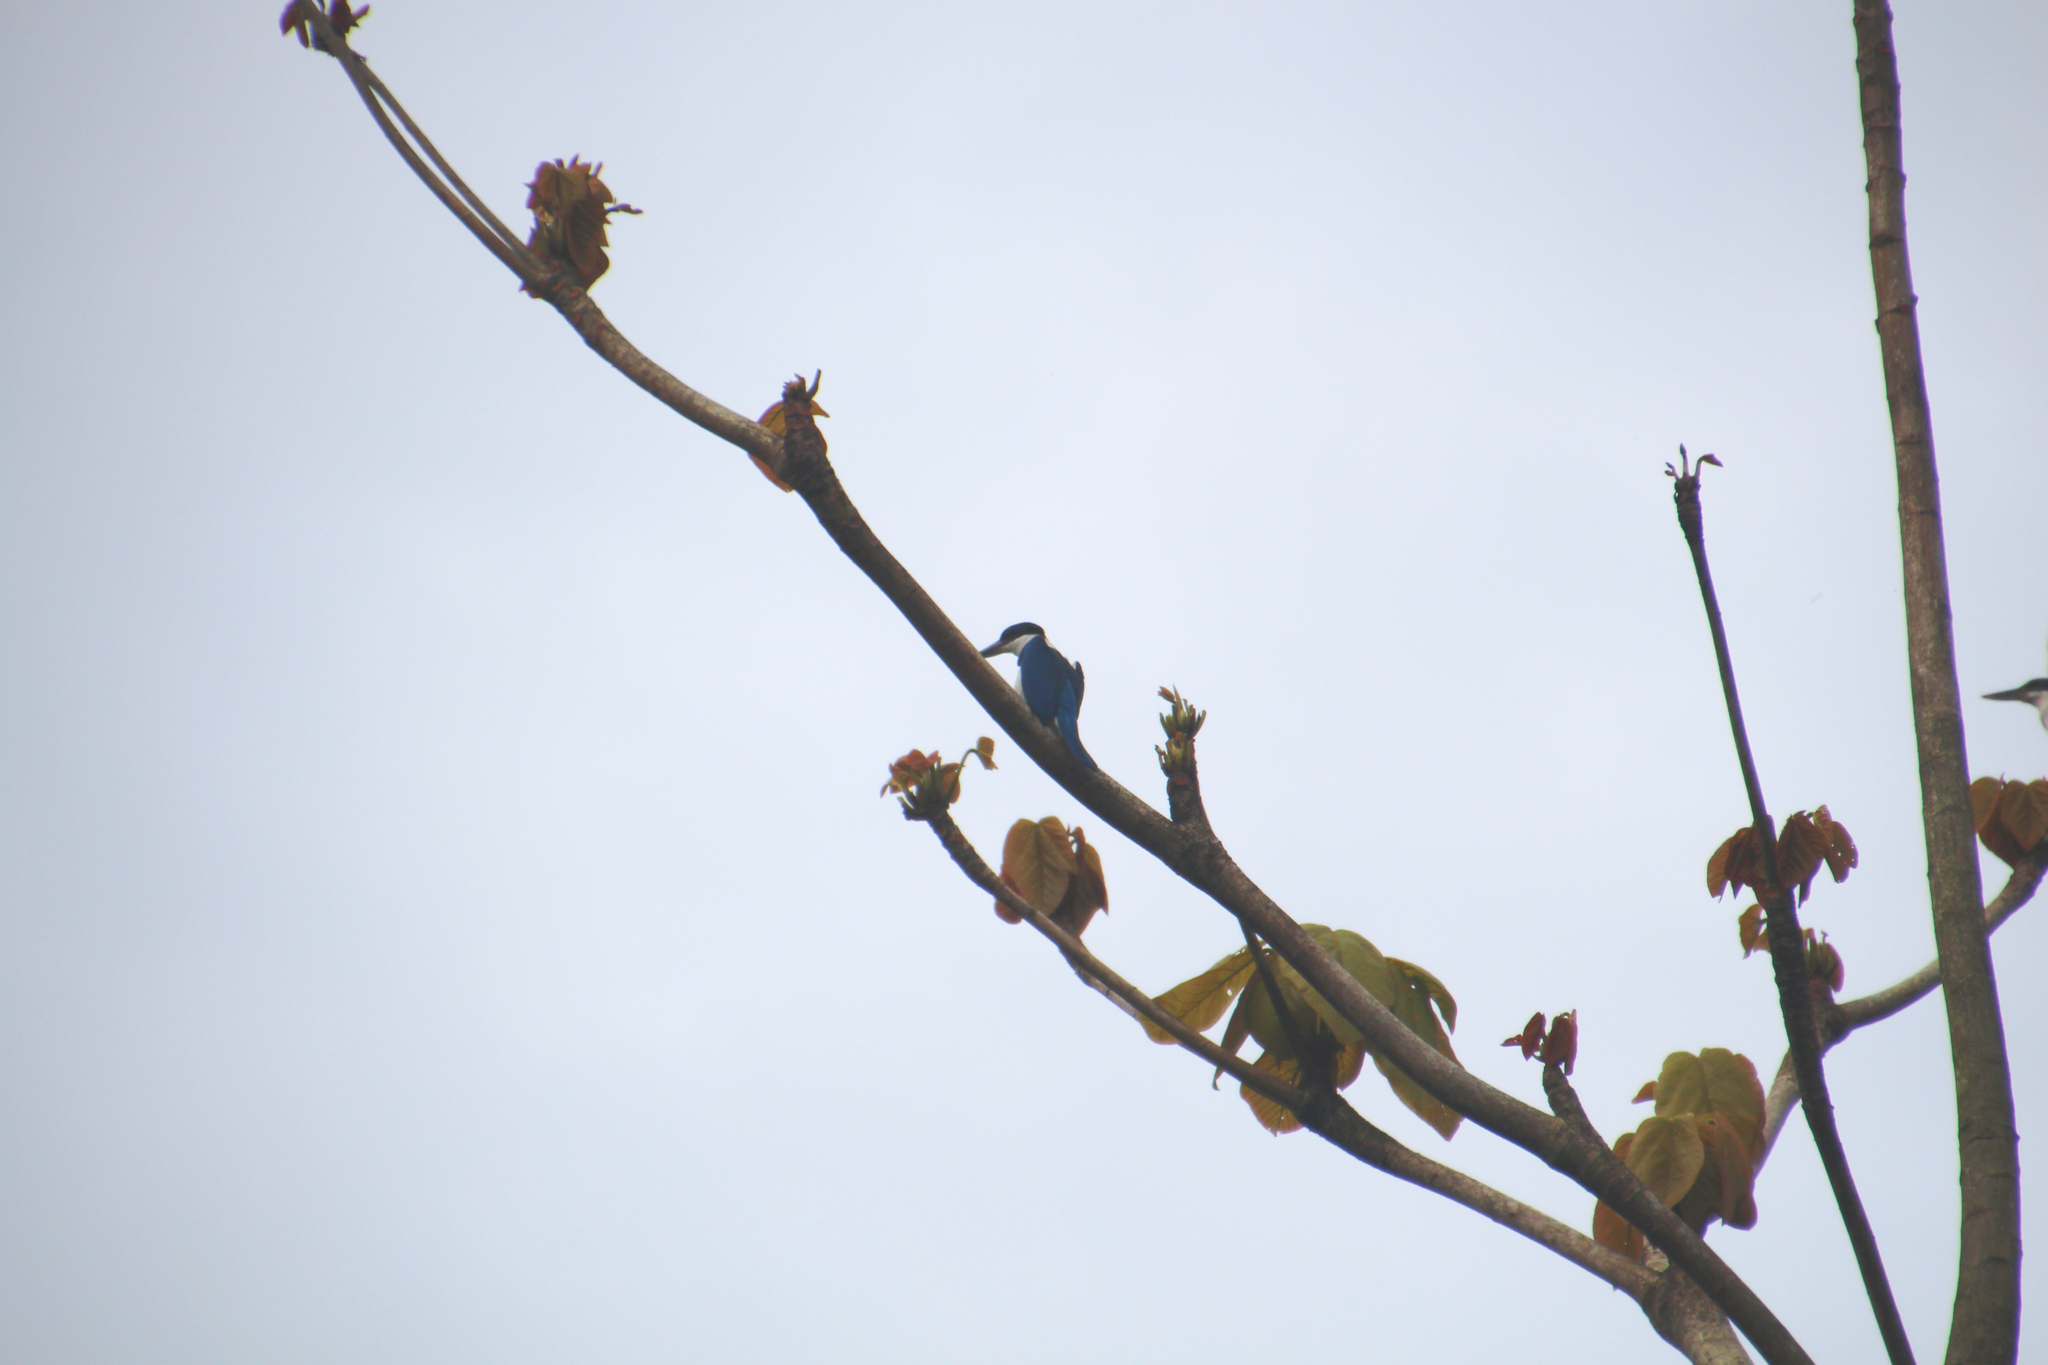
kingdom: Animalia
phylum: Chordata
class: Aves
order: Coraciiformes
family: Alcedinidae
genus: Todiramphus
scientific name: Todiramphus chloris
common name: Collared kingfisher
